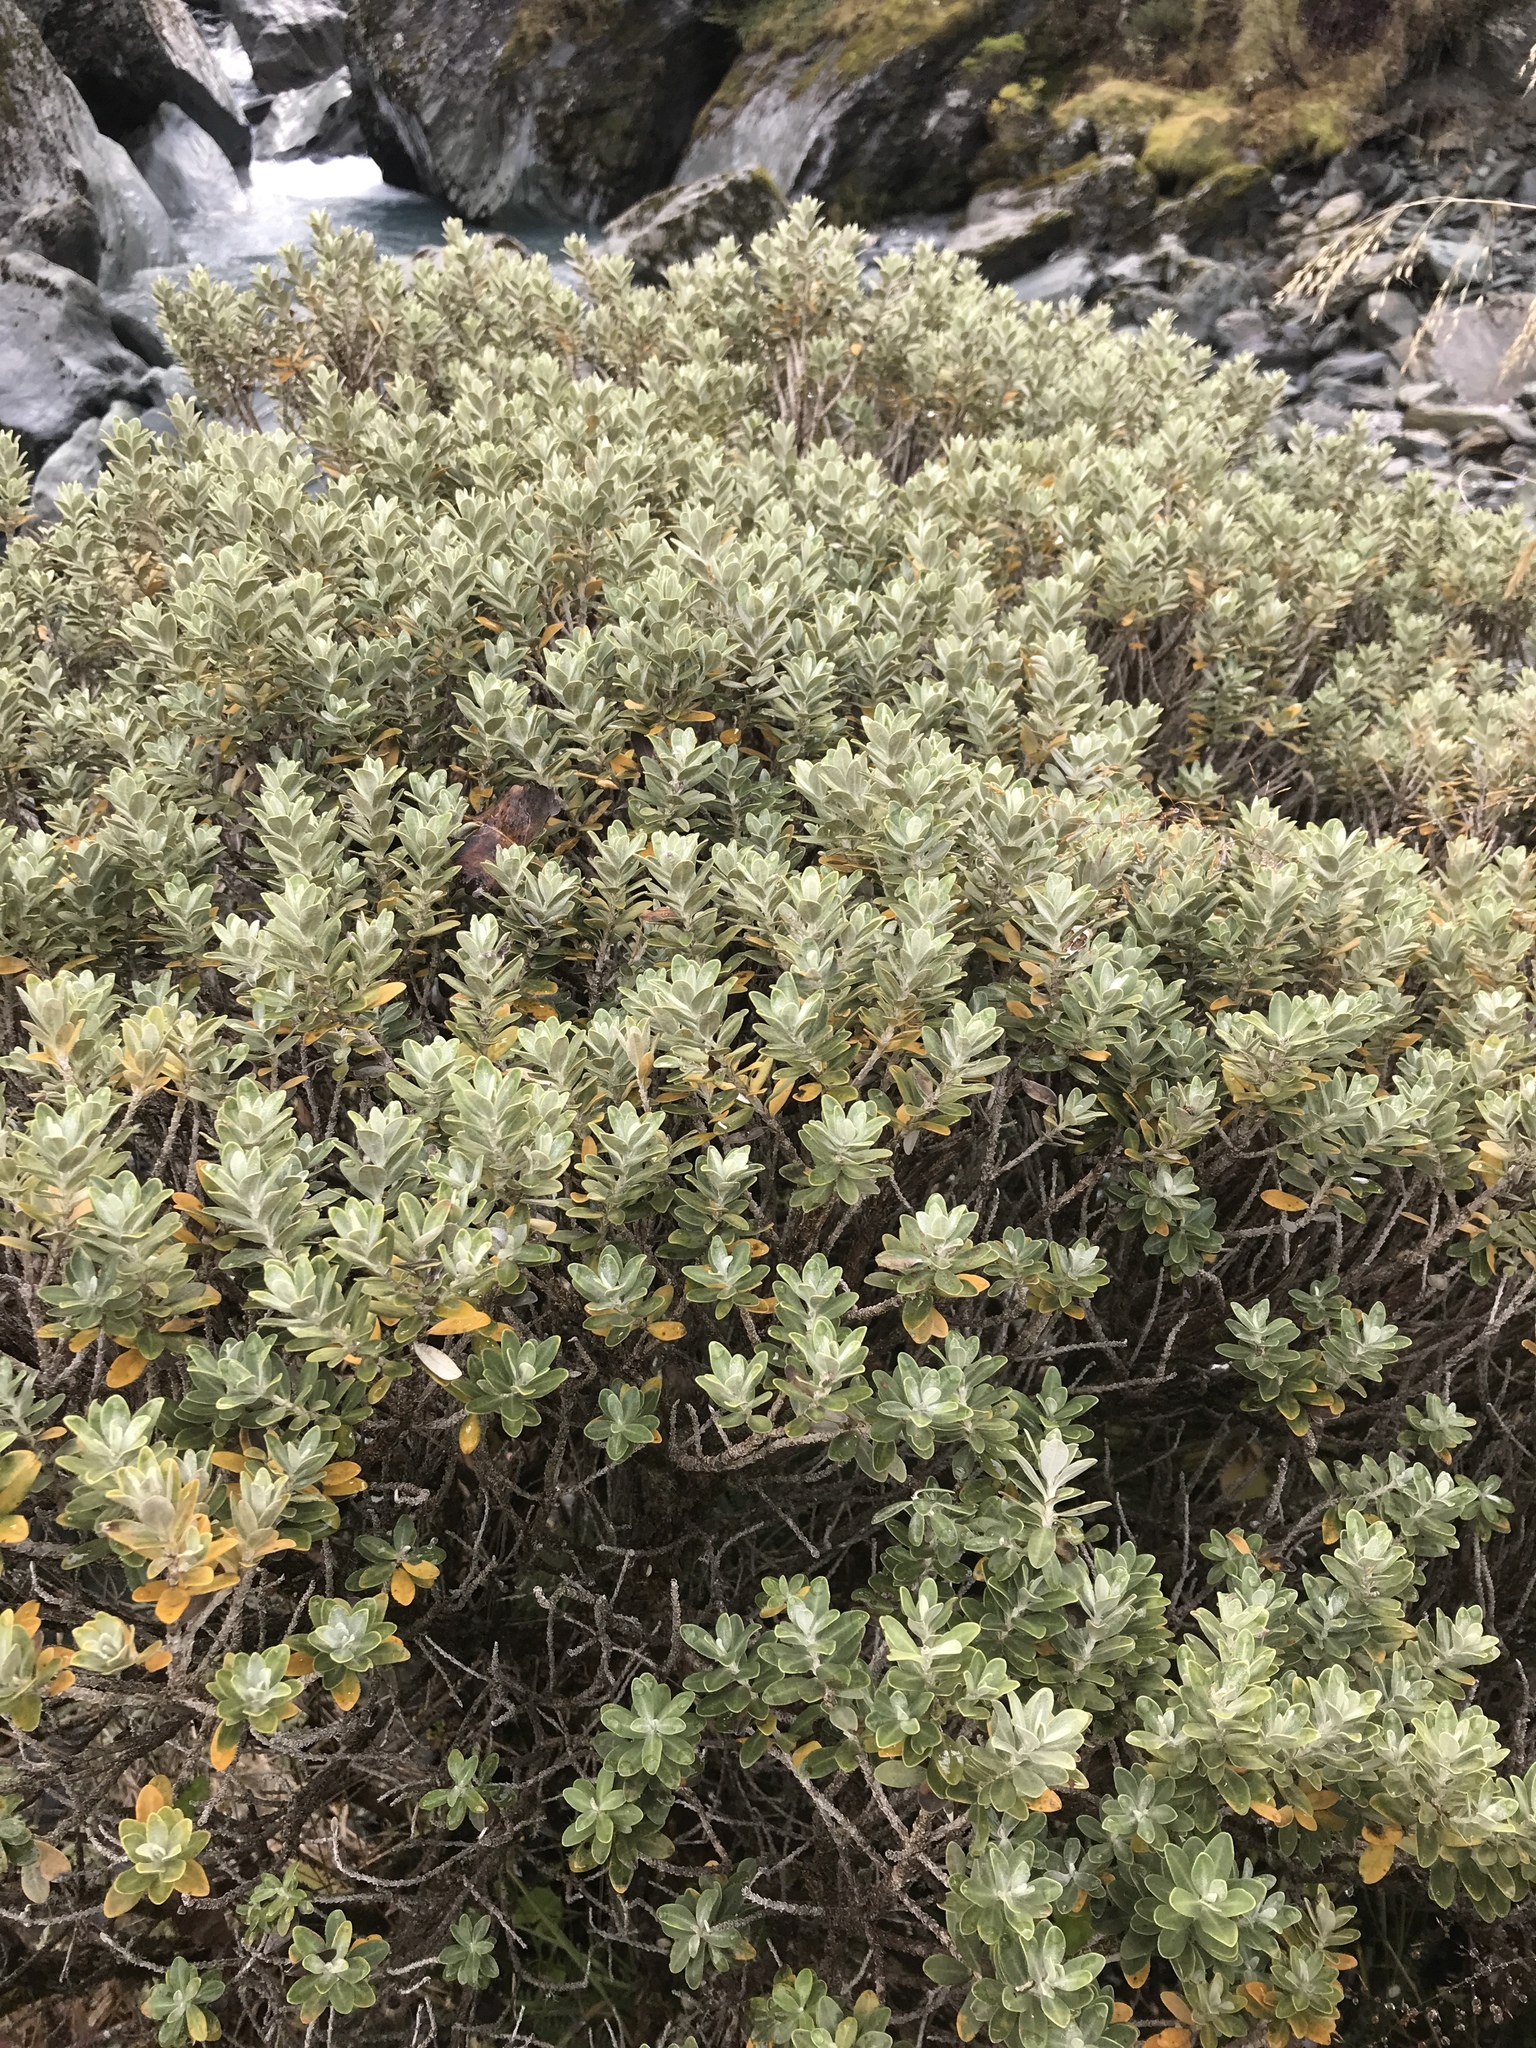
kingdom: Plantae
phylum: Tracheophyta
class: Magnoliopsida
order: Asterales
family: Asteraceae
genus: Olearia
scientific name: Olearia moschata
